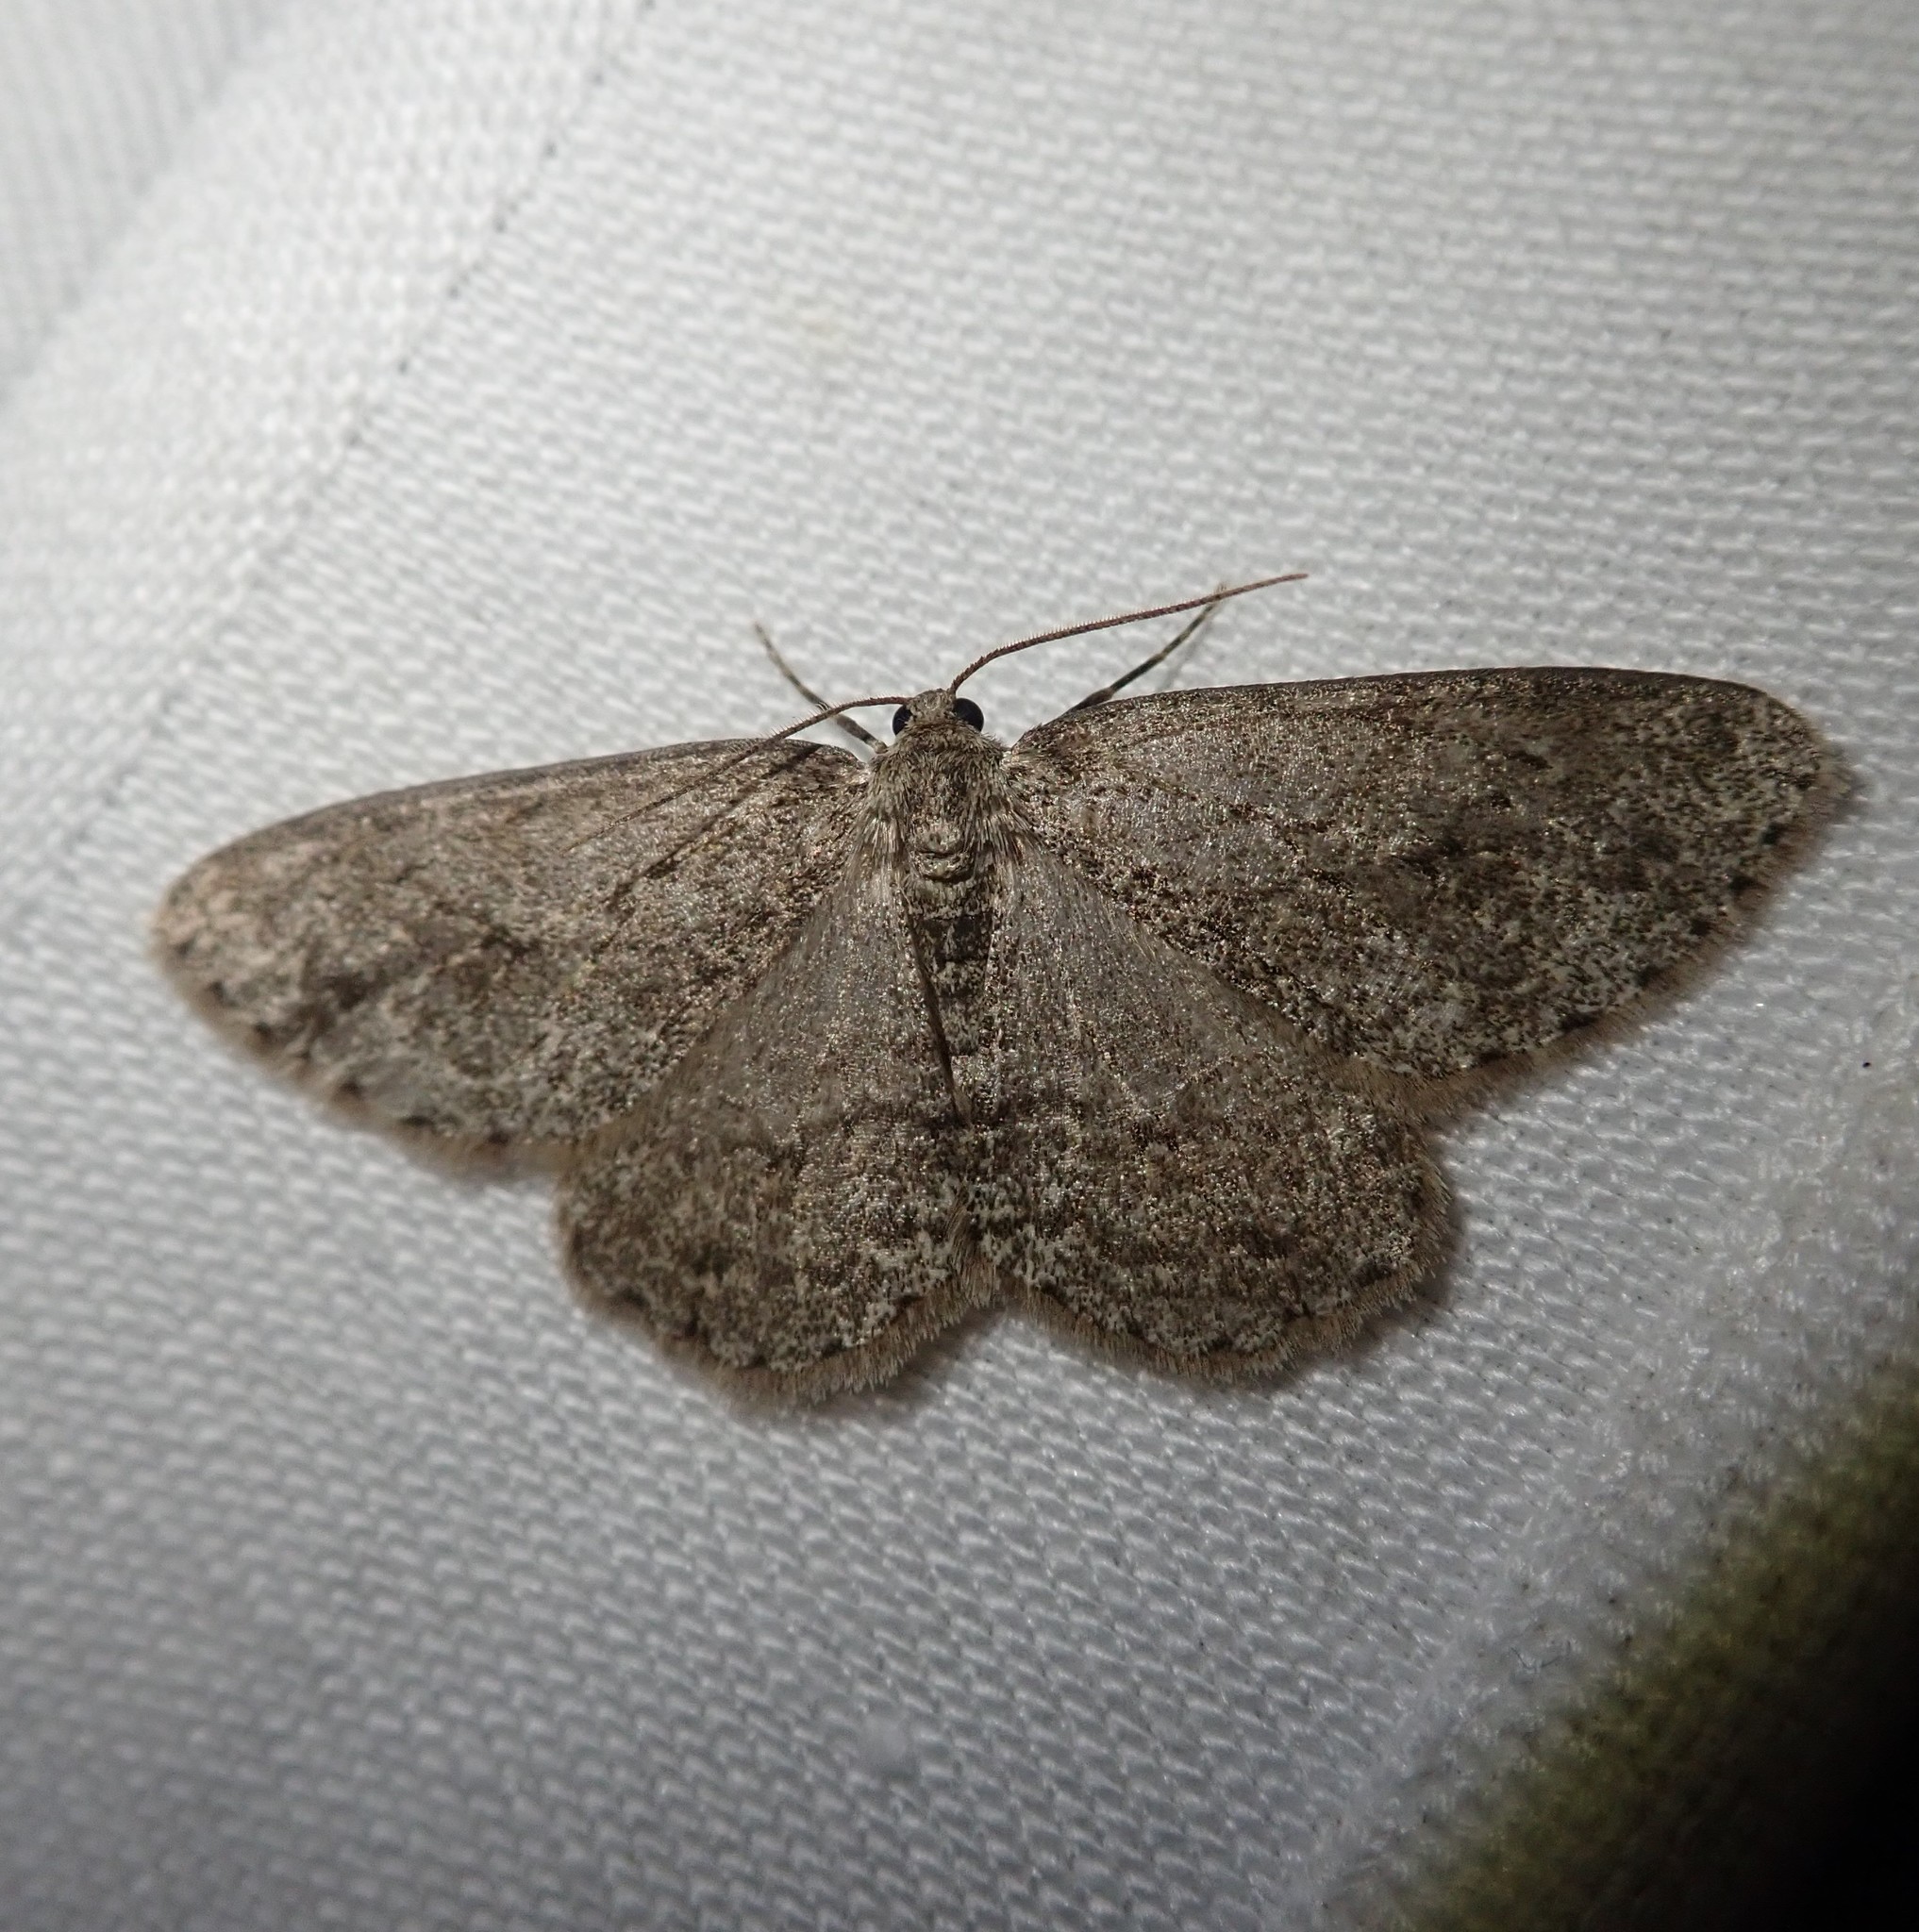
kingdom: Animalia
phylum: Arthropoda
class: Insecta
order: Lepidoptera
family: Geometridae
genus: Ectropis
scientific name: Ectropis crepuscularia
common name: Engrailed
